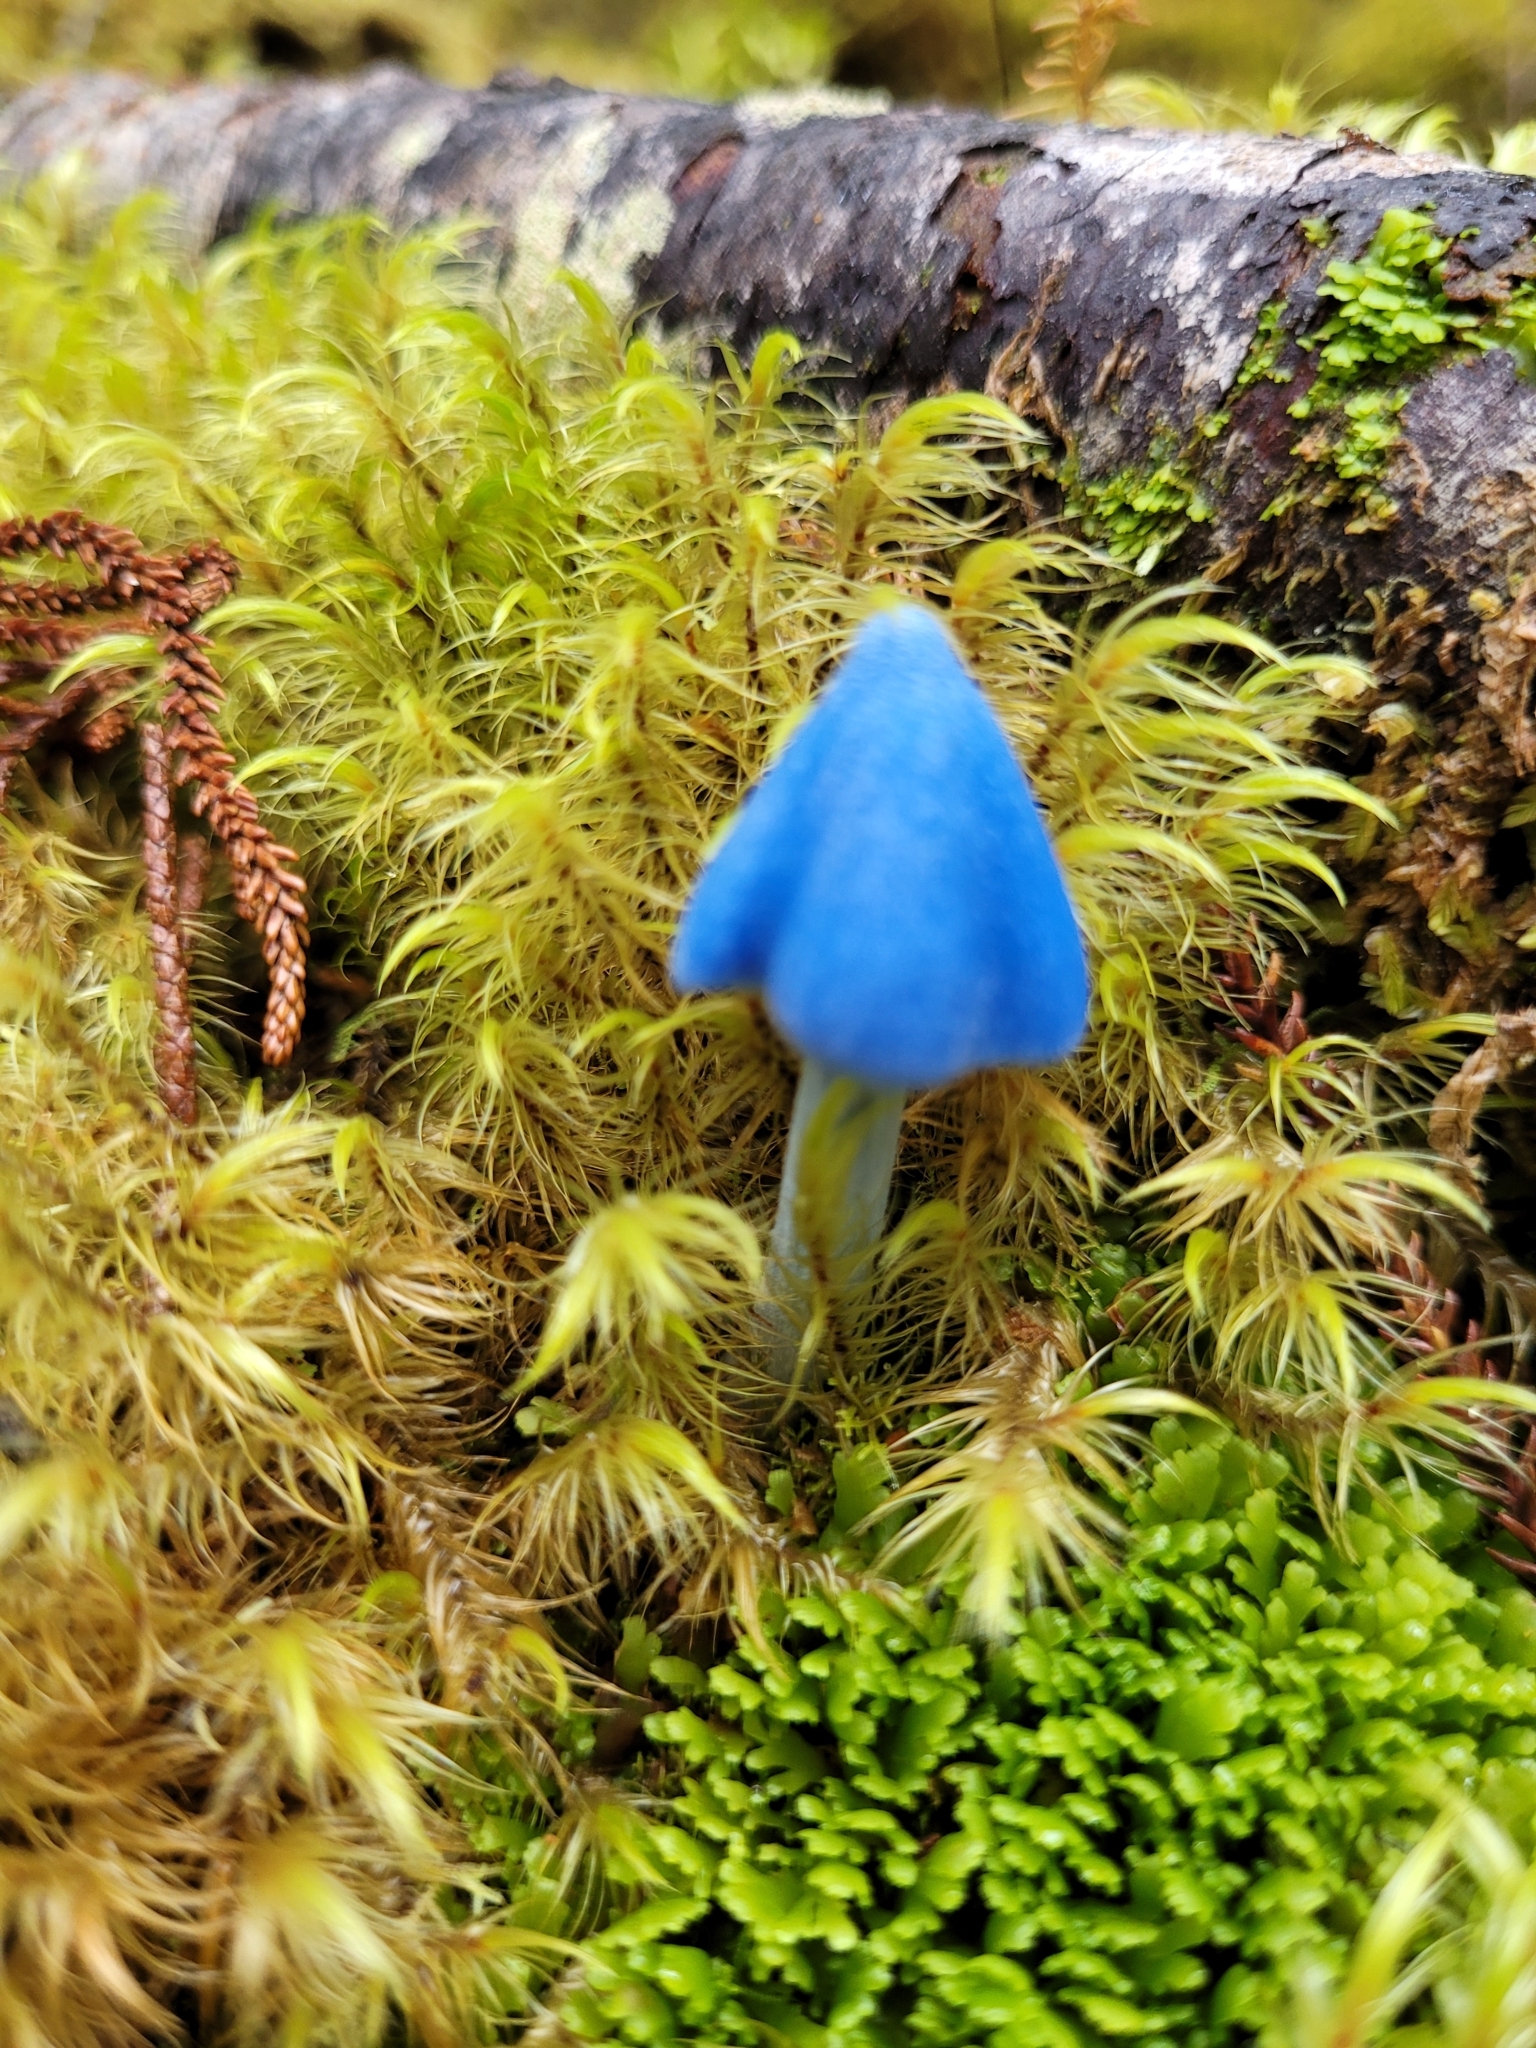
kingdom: Fungi
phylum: Basidiomycota
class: Agaricomycetes
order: Agaricales
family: Entolomataceae
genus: Entoloma
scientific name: Entoloma hochstetteri
